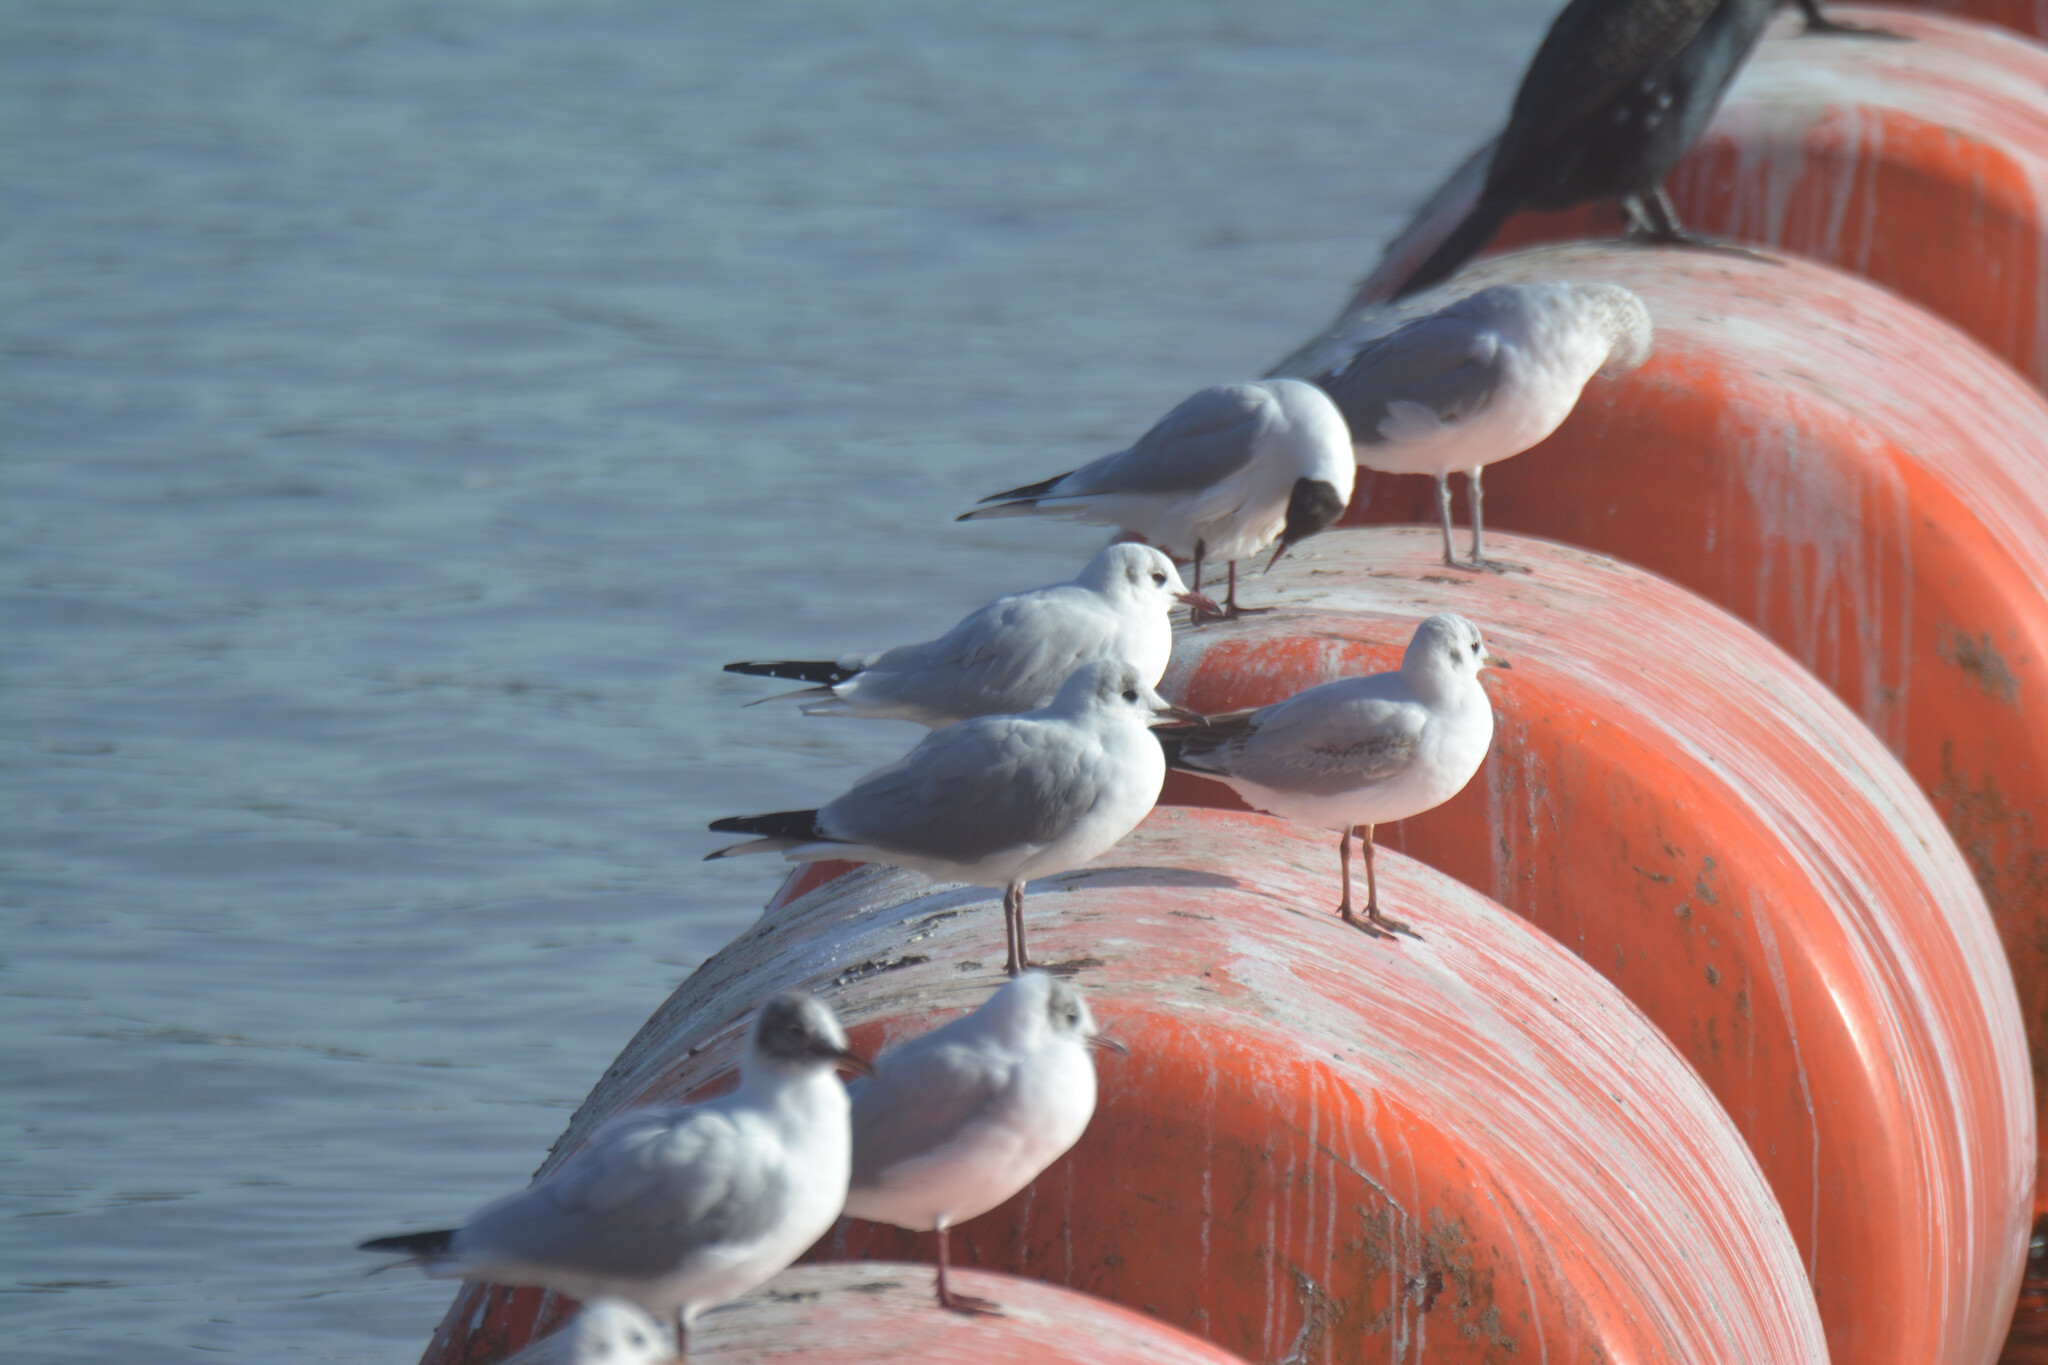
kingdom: Animalia
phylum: Chordata
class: Aves
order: Charadriiformes
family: Laridae
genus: Chroicocephalus
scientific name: Chroicocephalus ridibundus
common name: Black-headed gull
